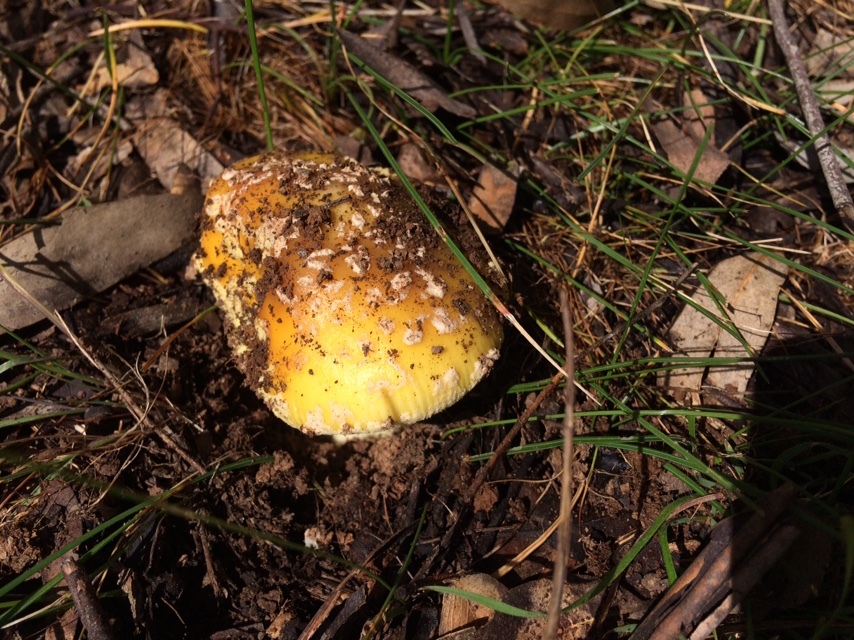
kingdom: Fungi
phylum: Basidiomycota
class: Agaricomycetes
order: Agaricales
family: Amanitaceae
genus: Amanita
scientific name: Amanita xanthocephala
